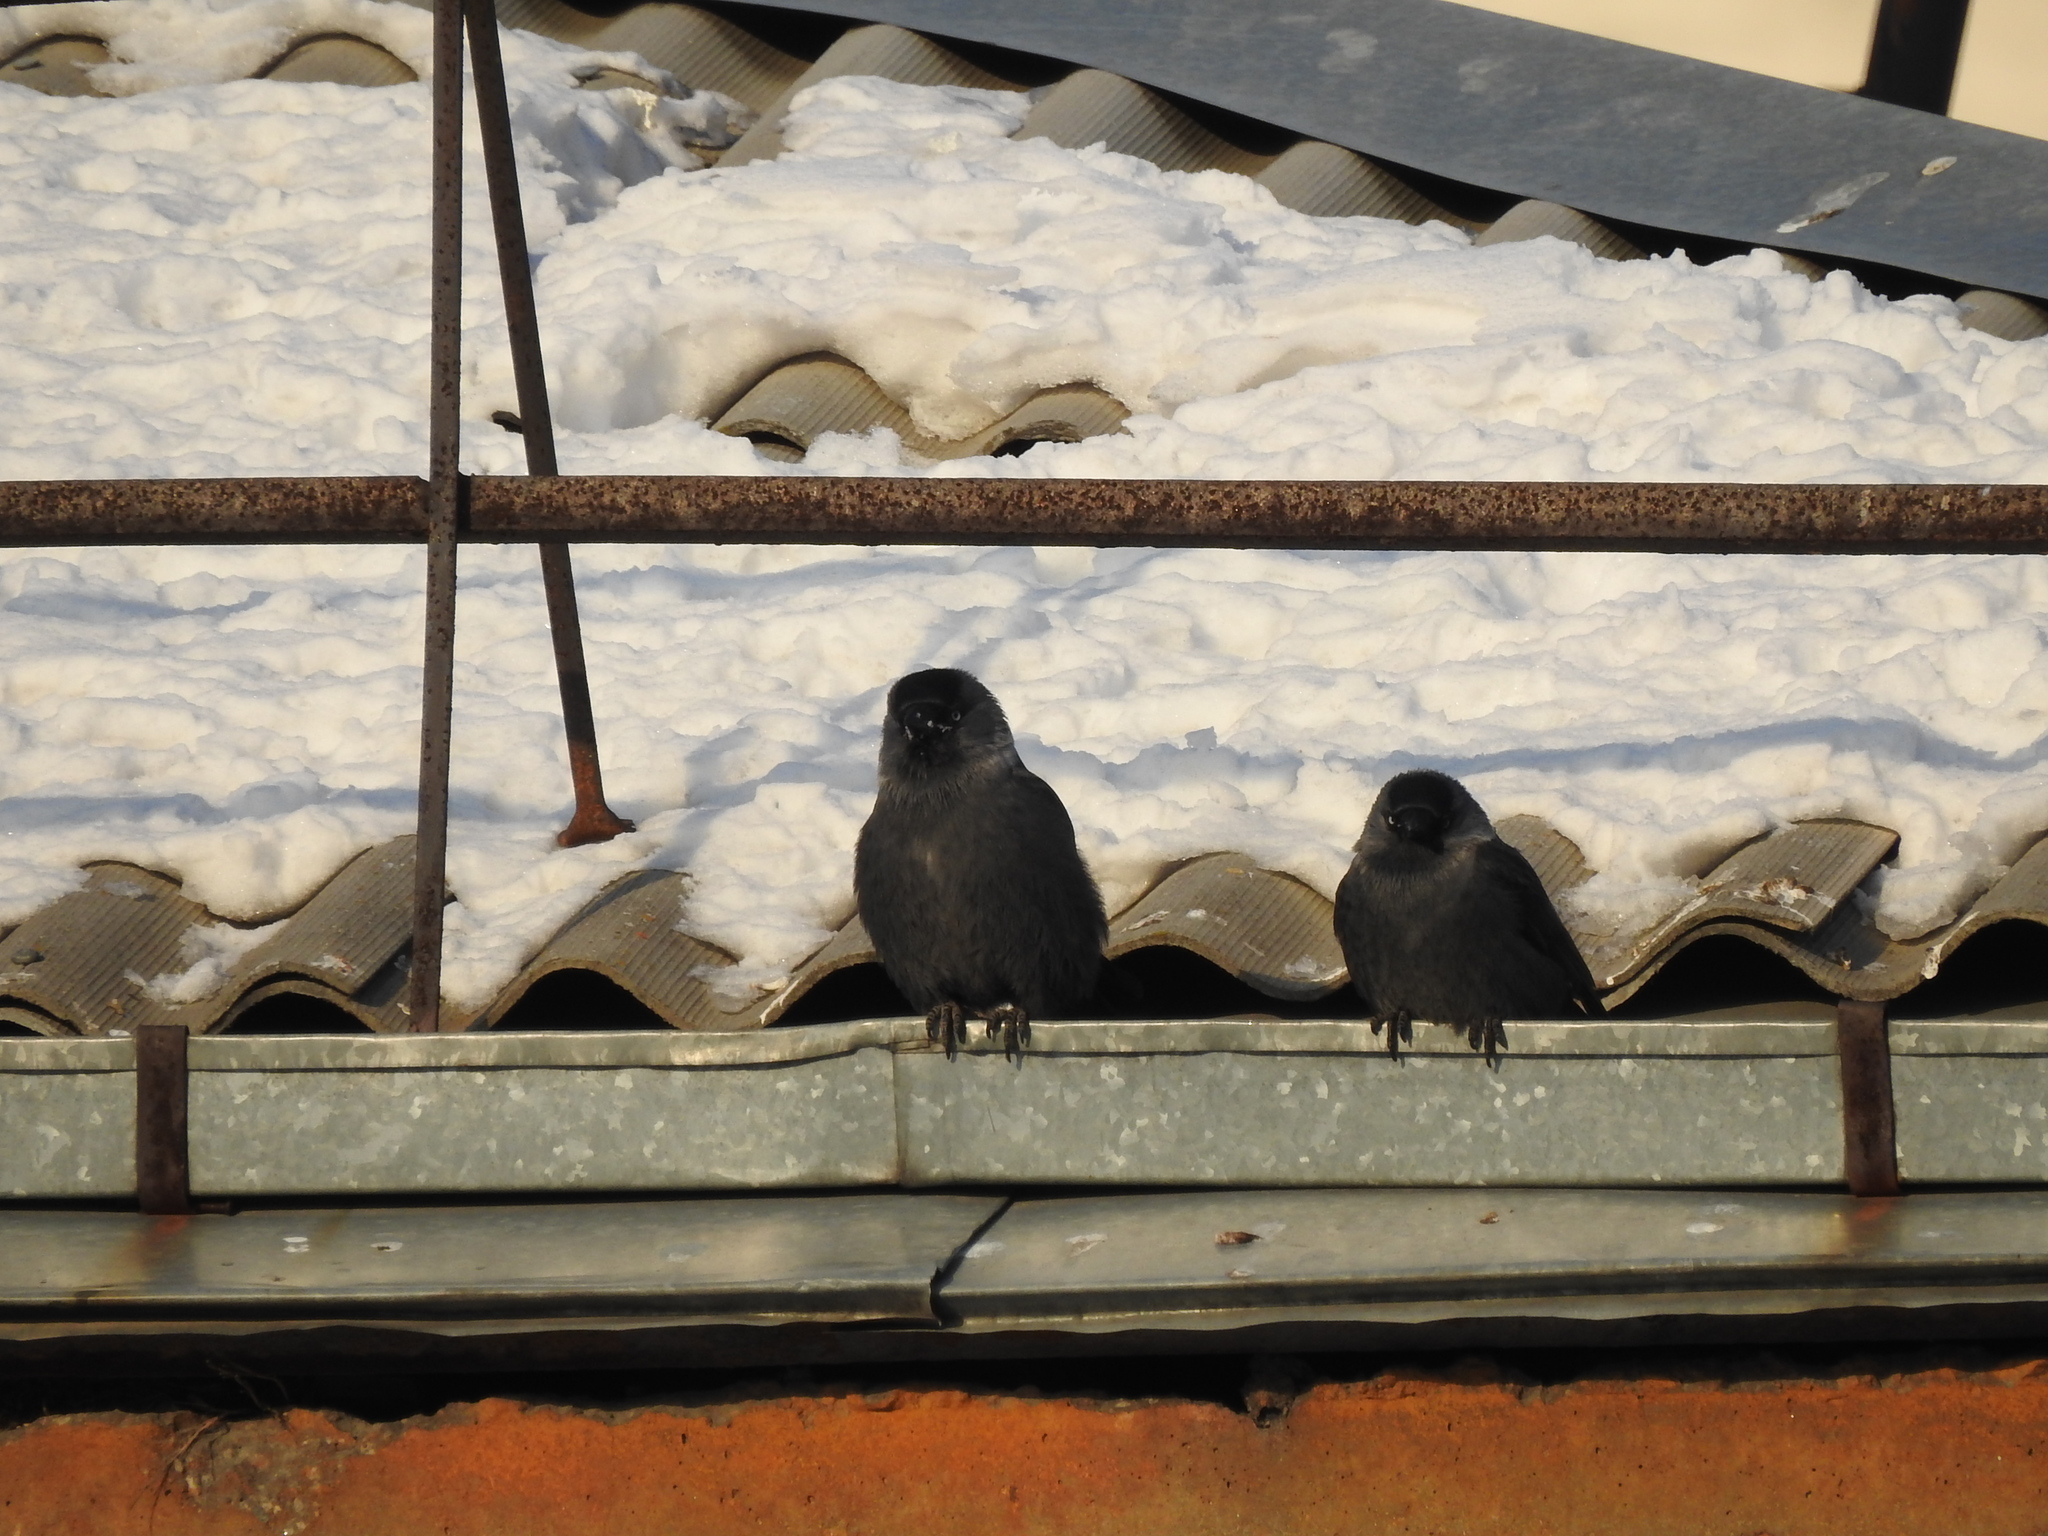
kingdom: Animalia
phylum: Chordata
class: Aves
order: Passeriformes
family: Corvidae
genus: Coloeus
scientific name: Coloeus monedula
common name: Western jackdaw
